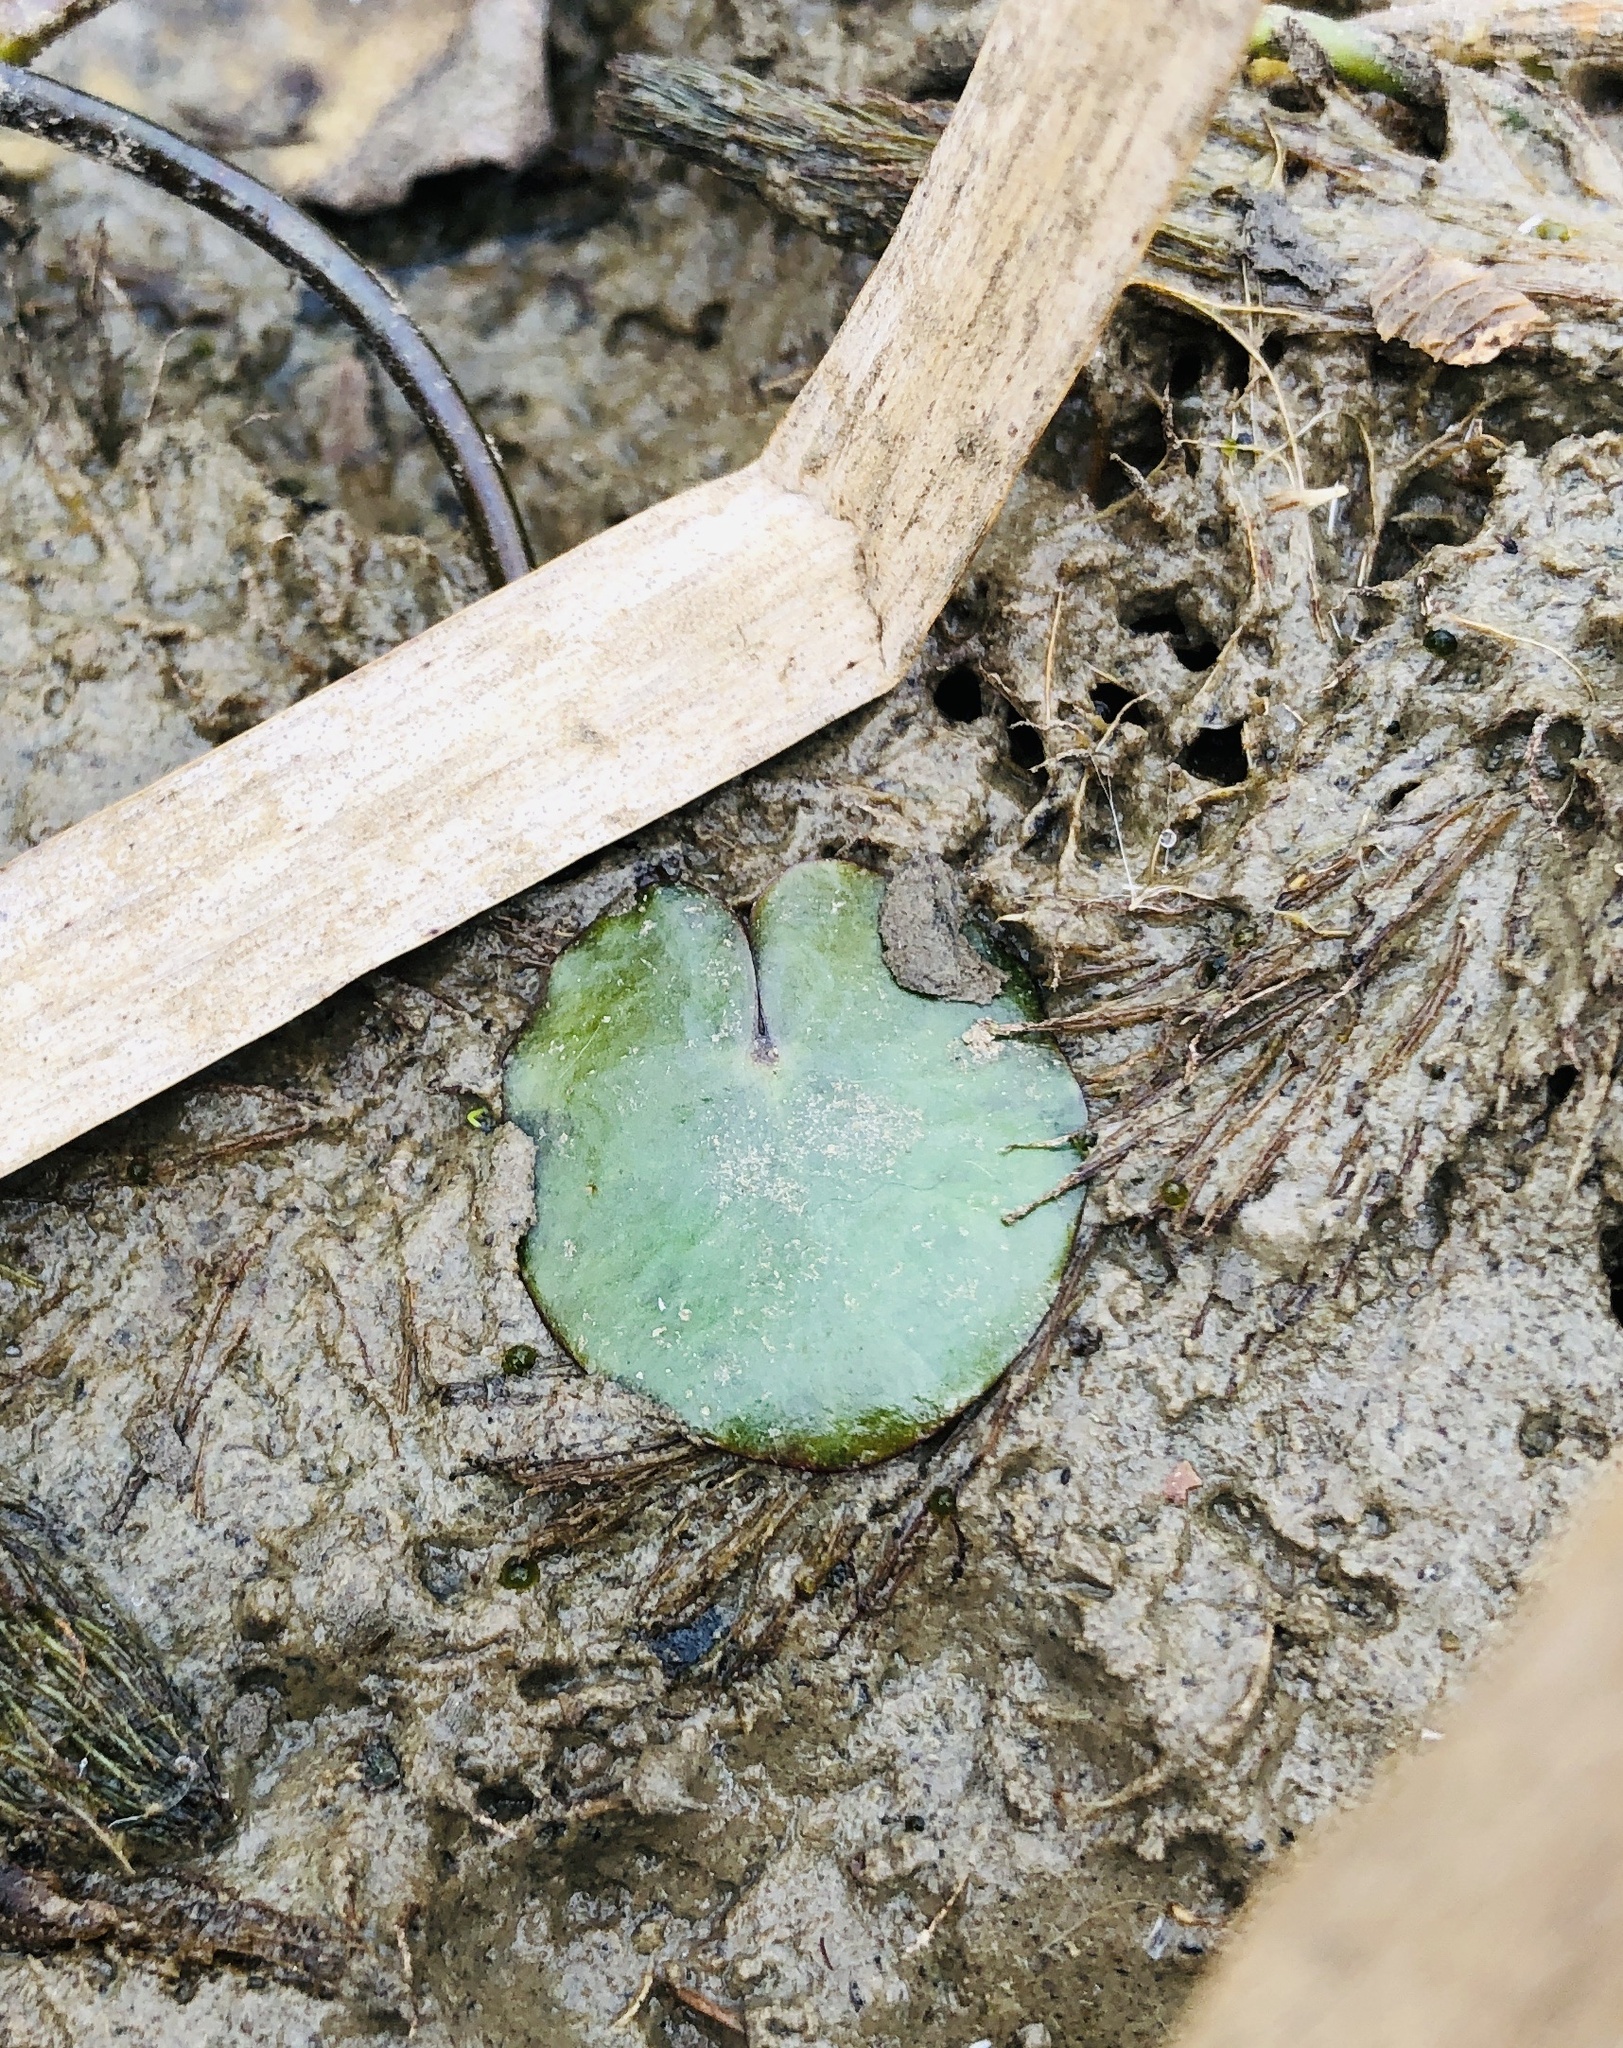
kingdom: Plantae
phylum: Tracheophyta
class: Magnoliopsida
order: Asterales
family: Menyanthaceae
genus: Nymphoides
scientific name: Nymphoides peltata
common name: Fringed water-lily
